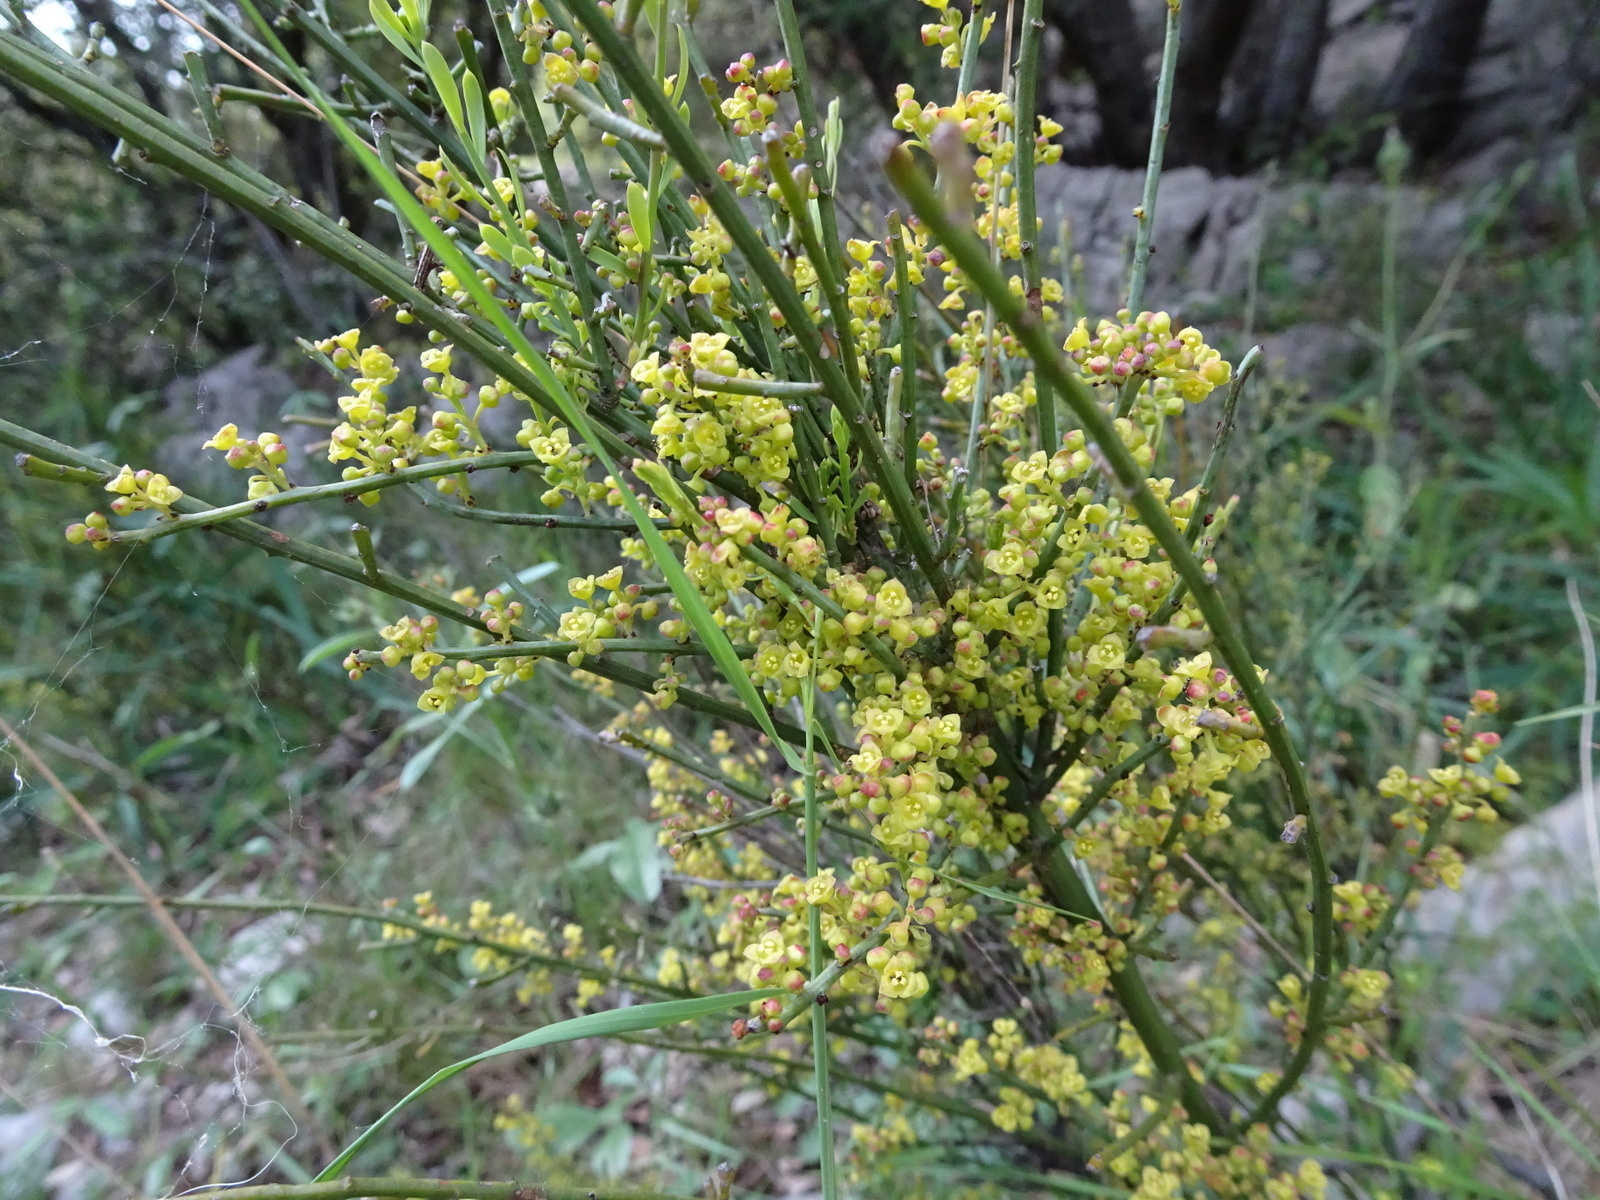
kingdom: Plantae
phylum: Tracheophyta
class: Magnoliopsida
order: Santalales
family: Santalaceae
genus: Osyris
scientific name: Osyris alba
